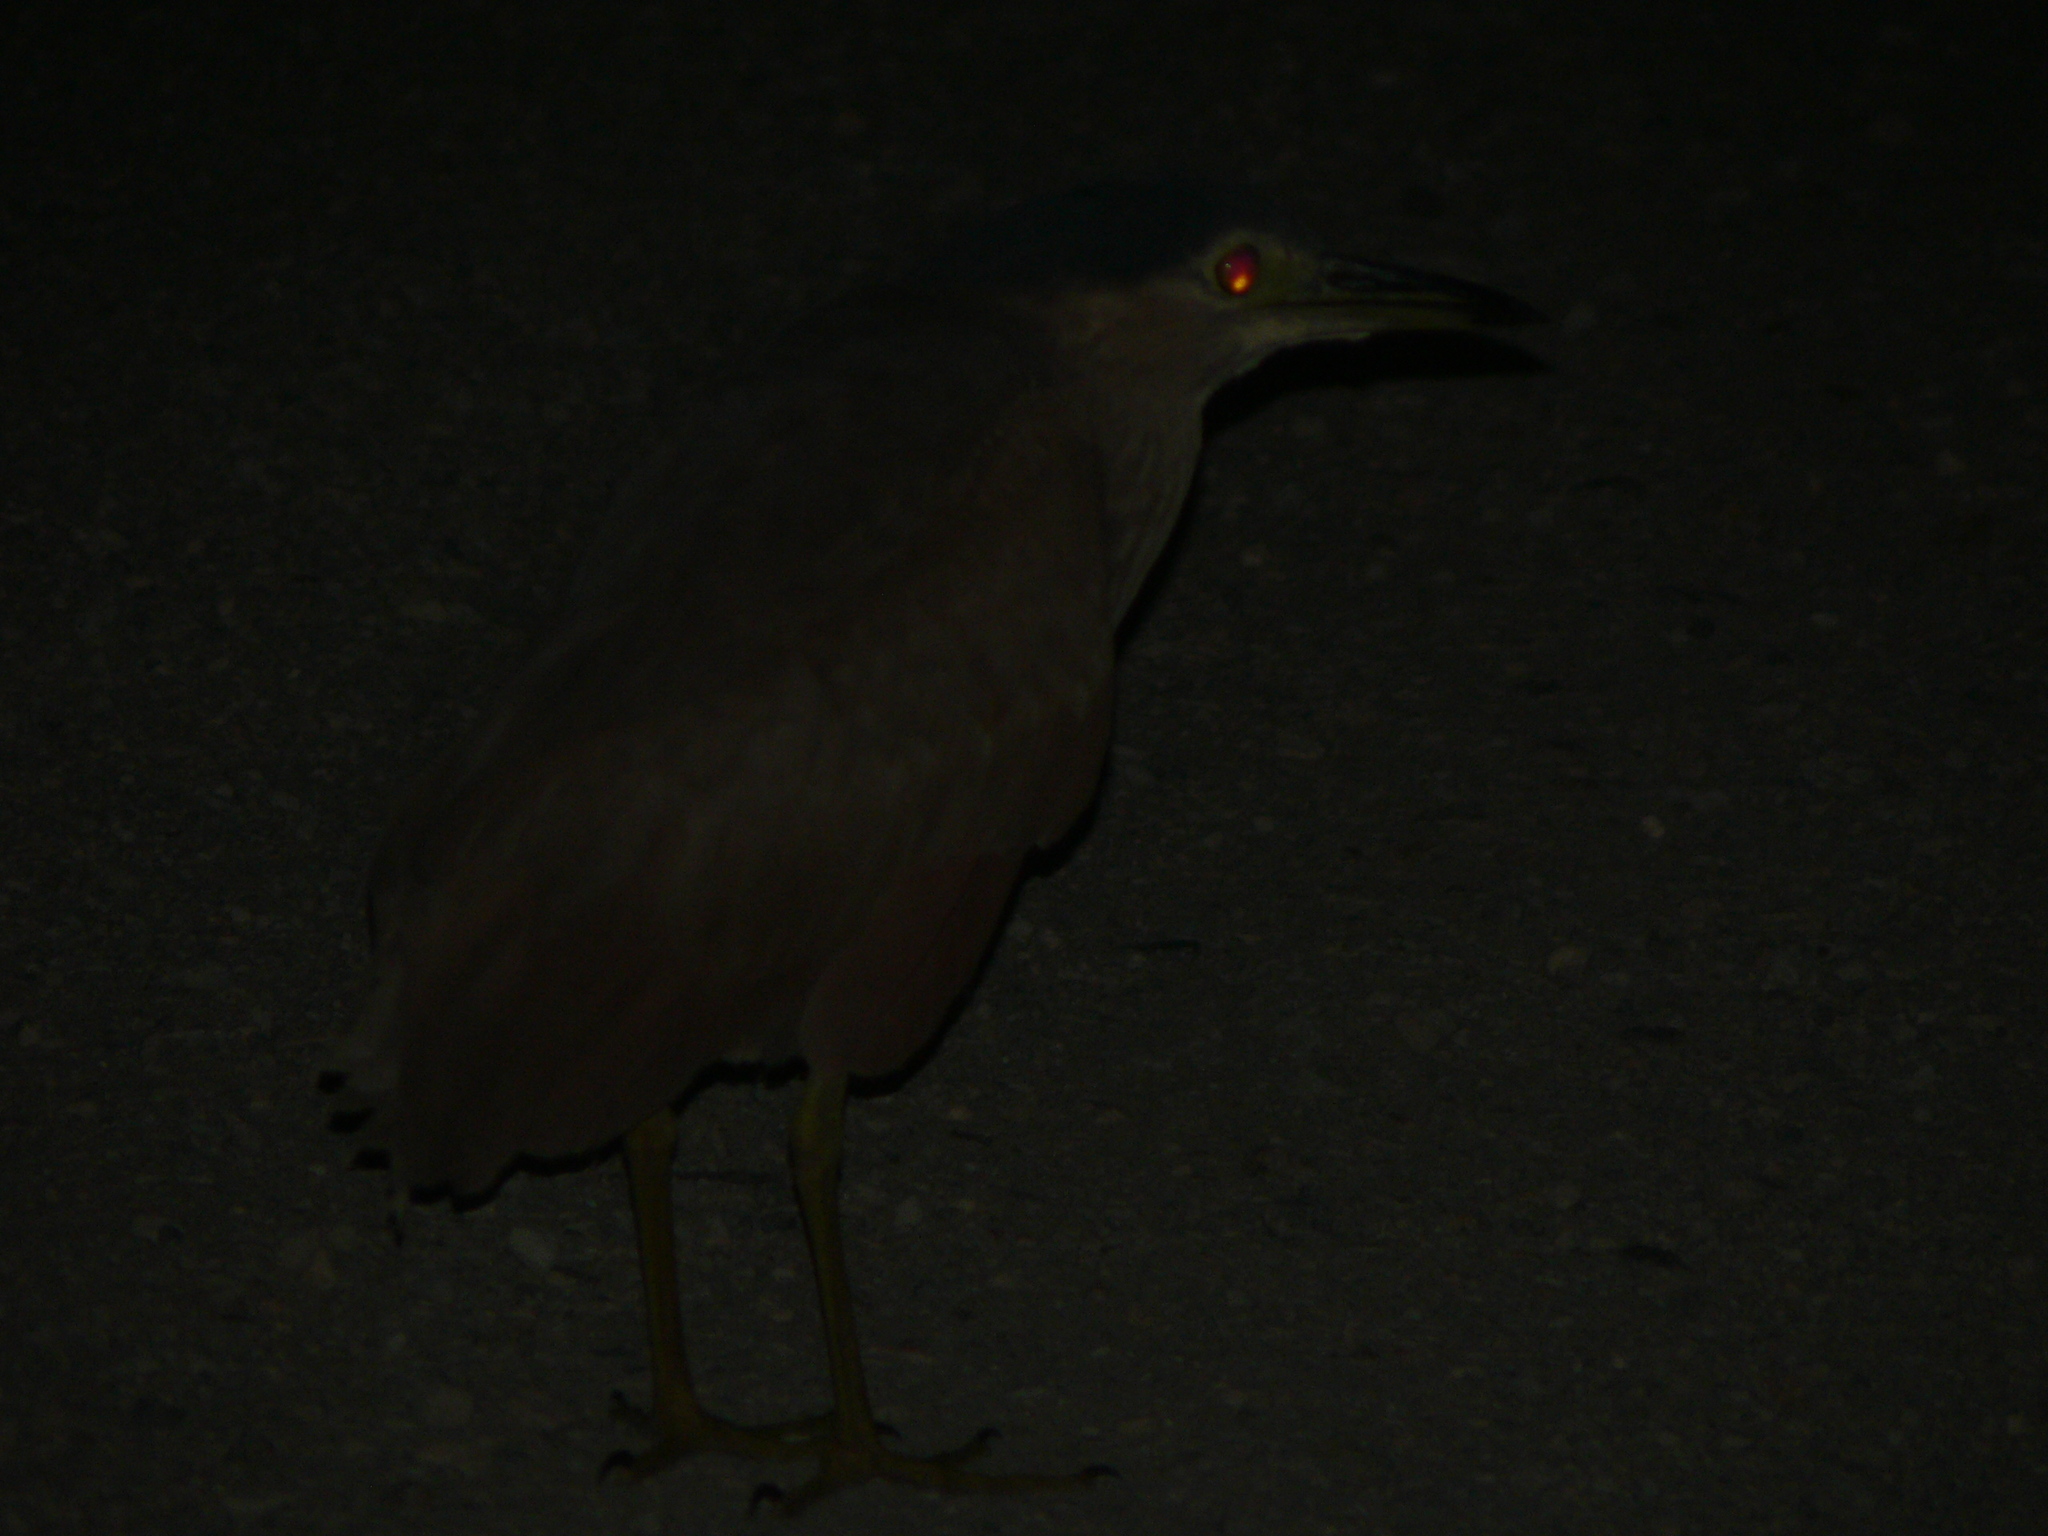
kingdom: Animalia
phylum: Chordata
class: Aves
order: Pelecaniformes
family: Ardeidae
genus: Nycticorax
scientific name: Nycticorax caledonicus
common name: Rufous night-heron
